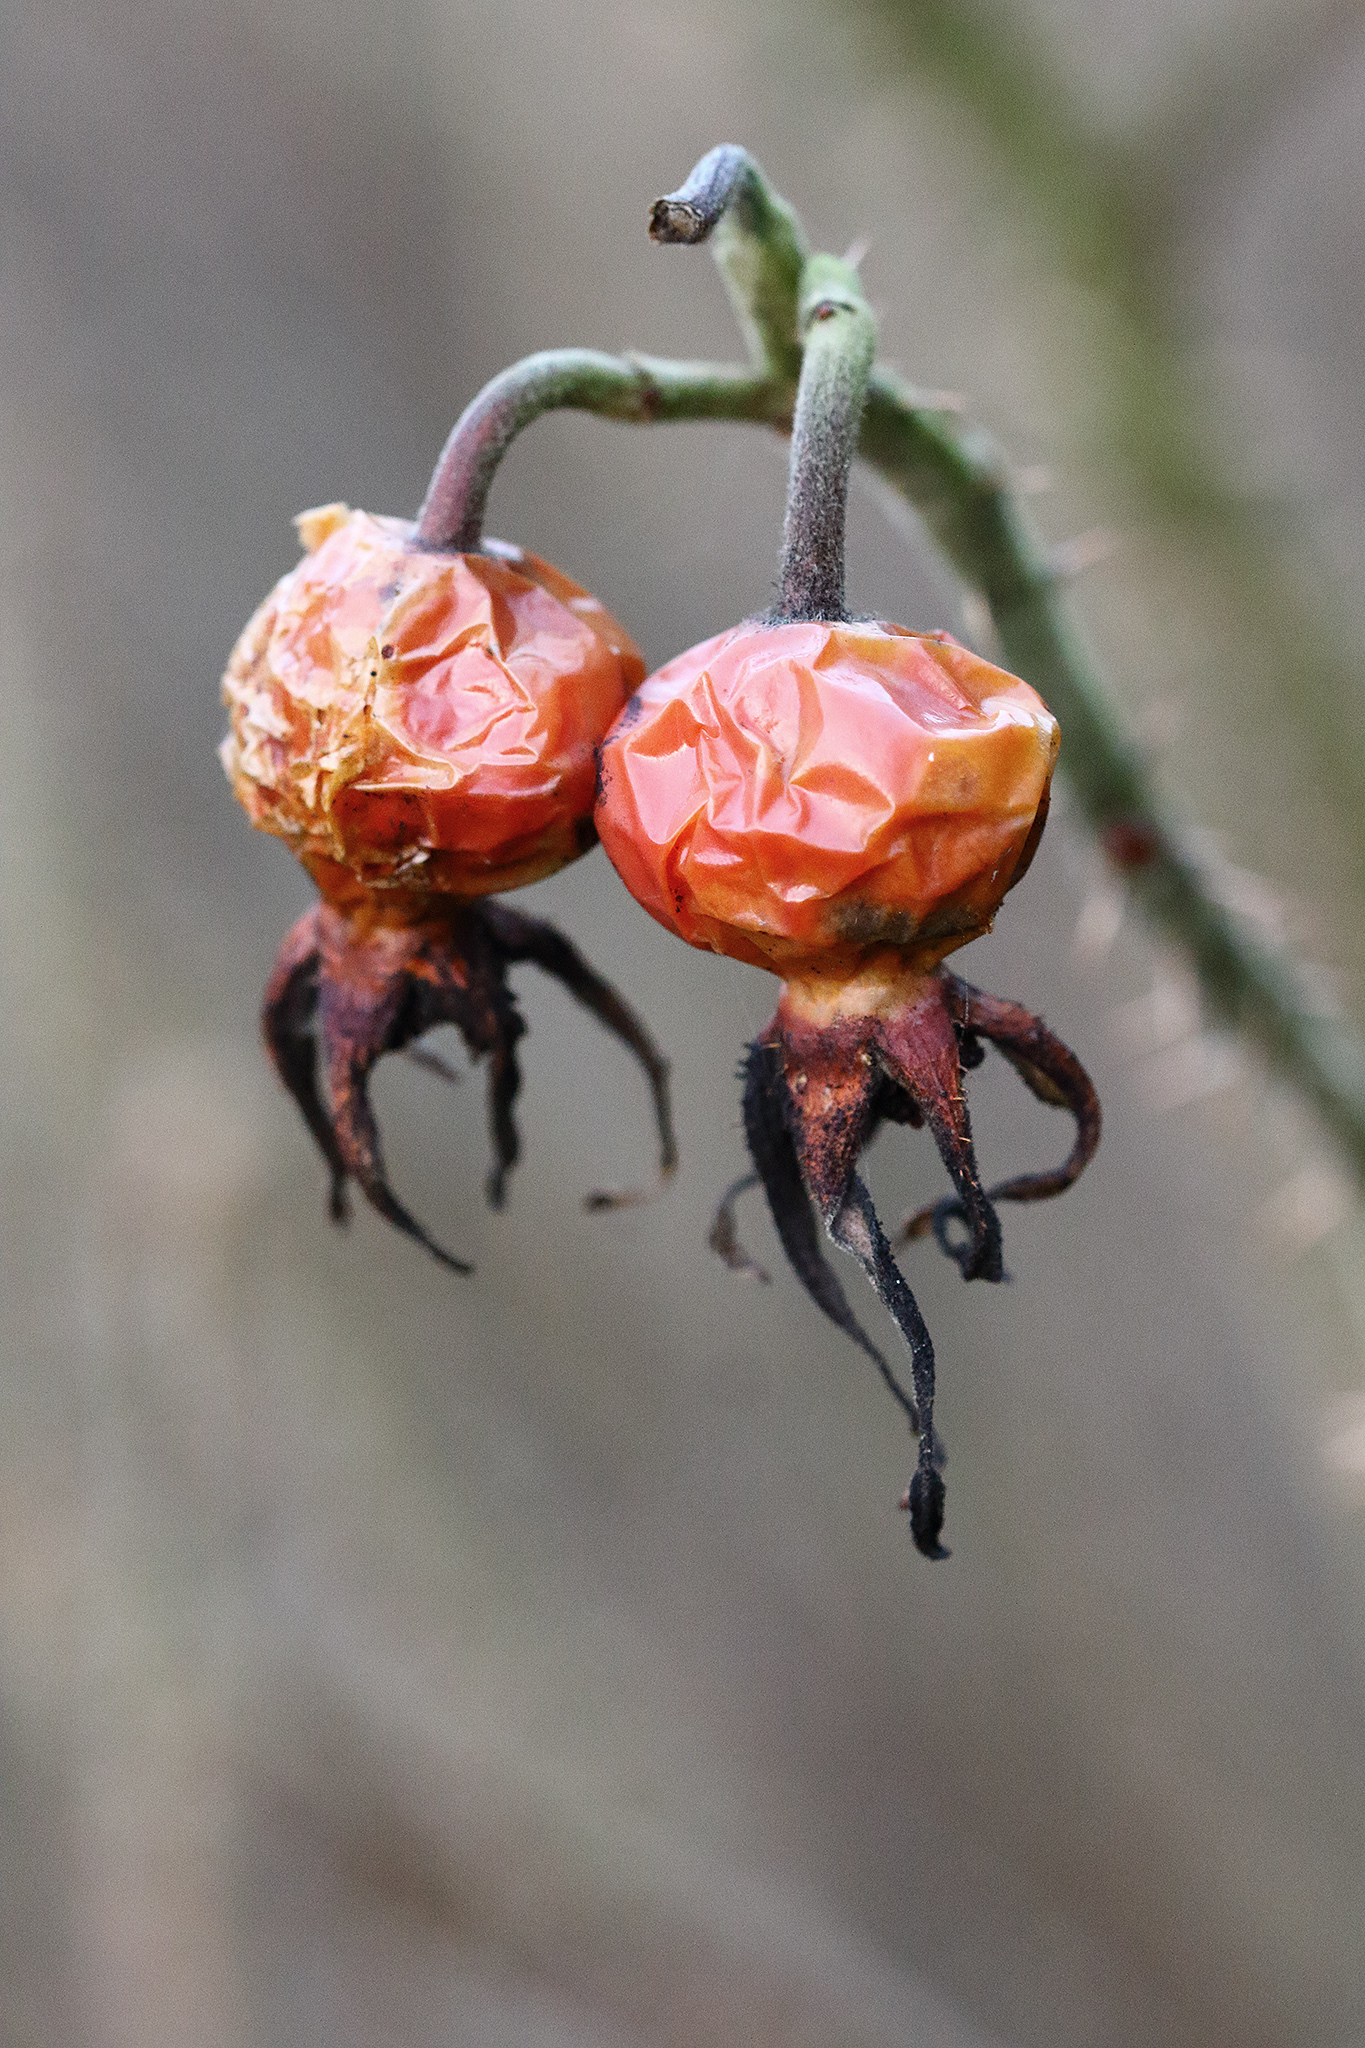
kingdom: Plantae
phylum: Tracheophyta
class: Magnoliopsida
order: Rosales
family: Rosaceae
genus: Rosa
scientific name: Rosa rugosa
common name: Japanese rose
